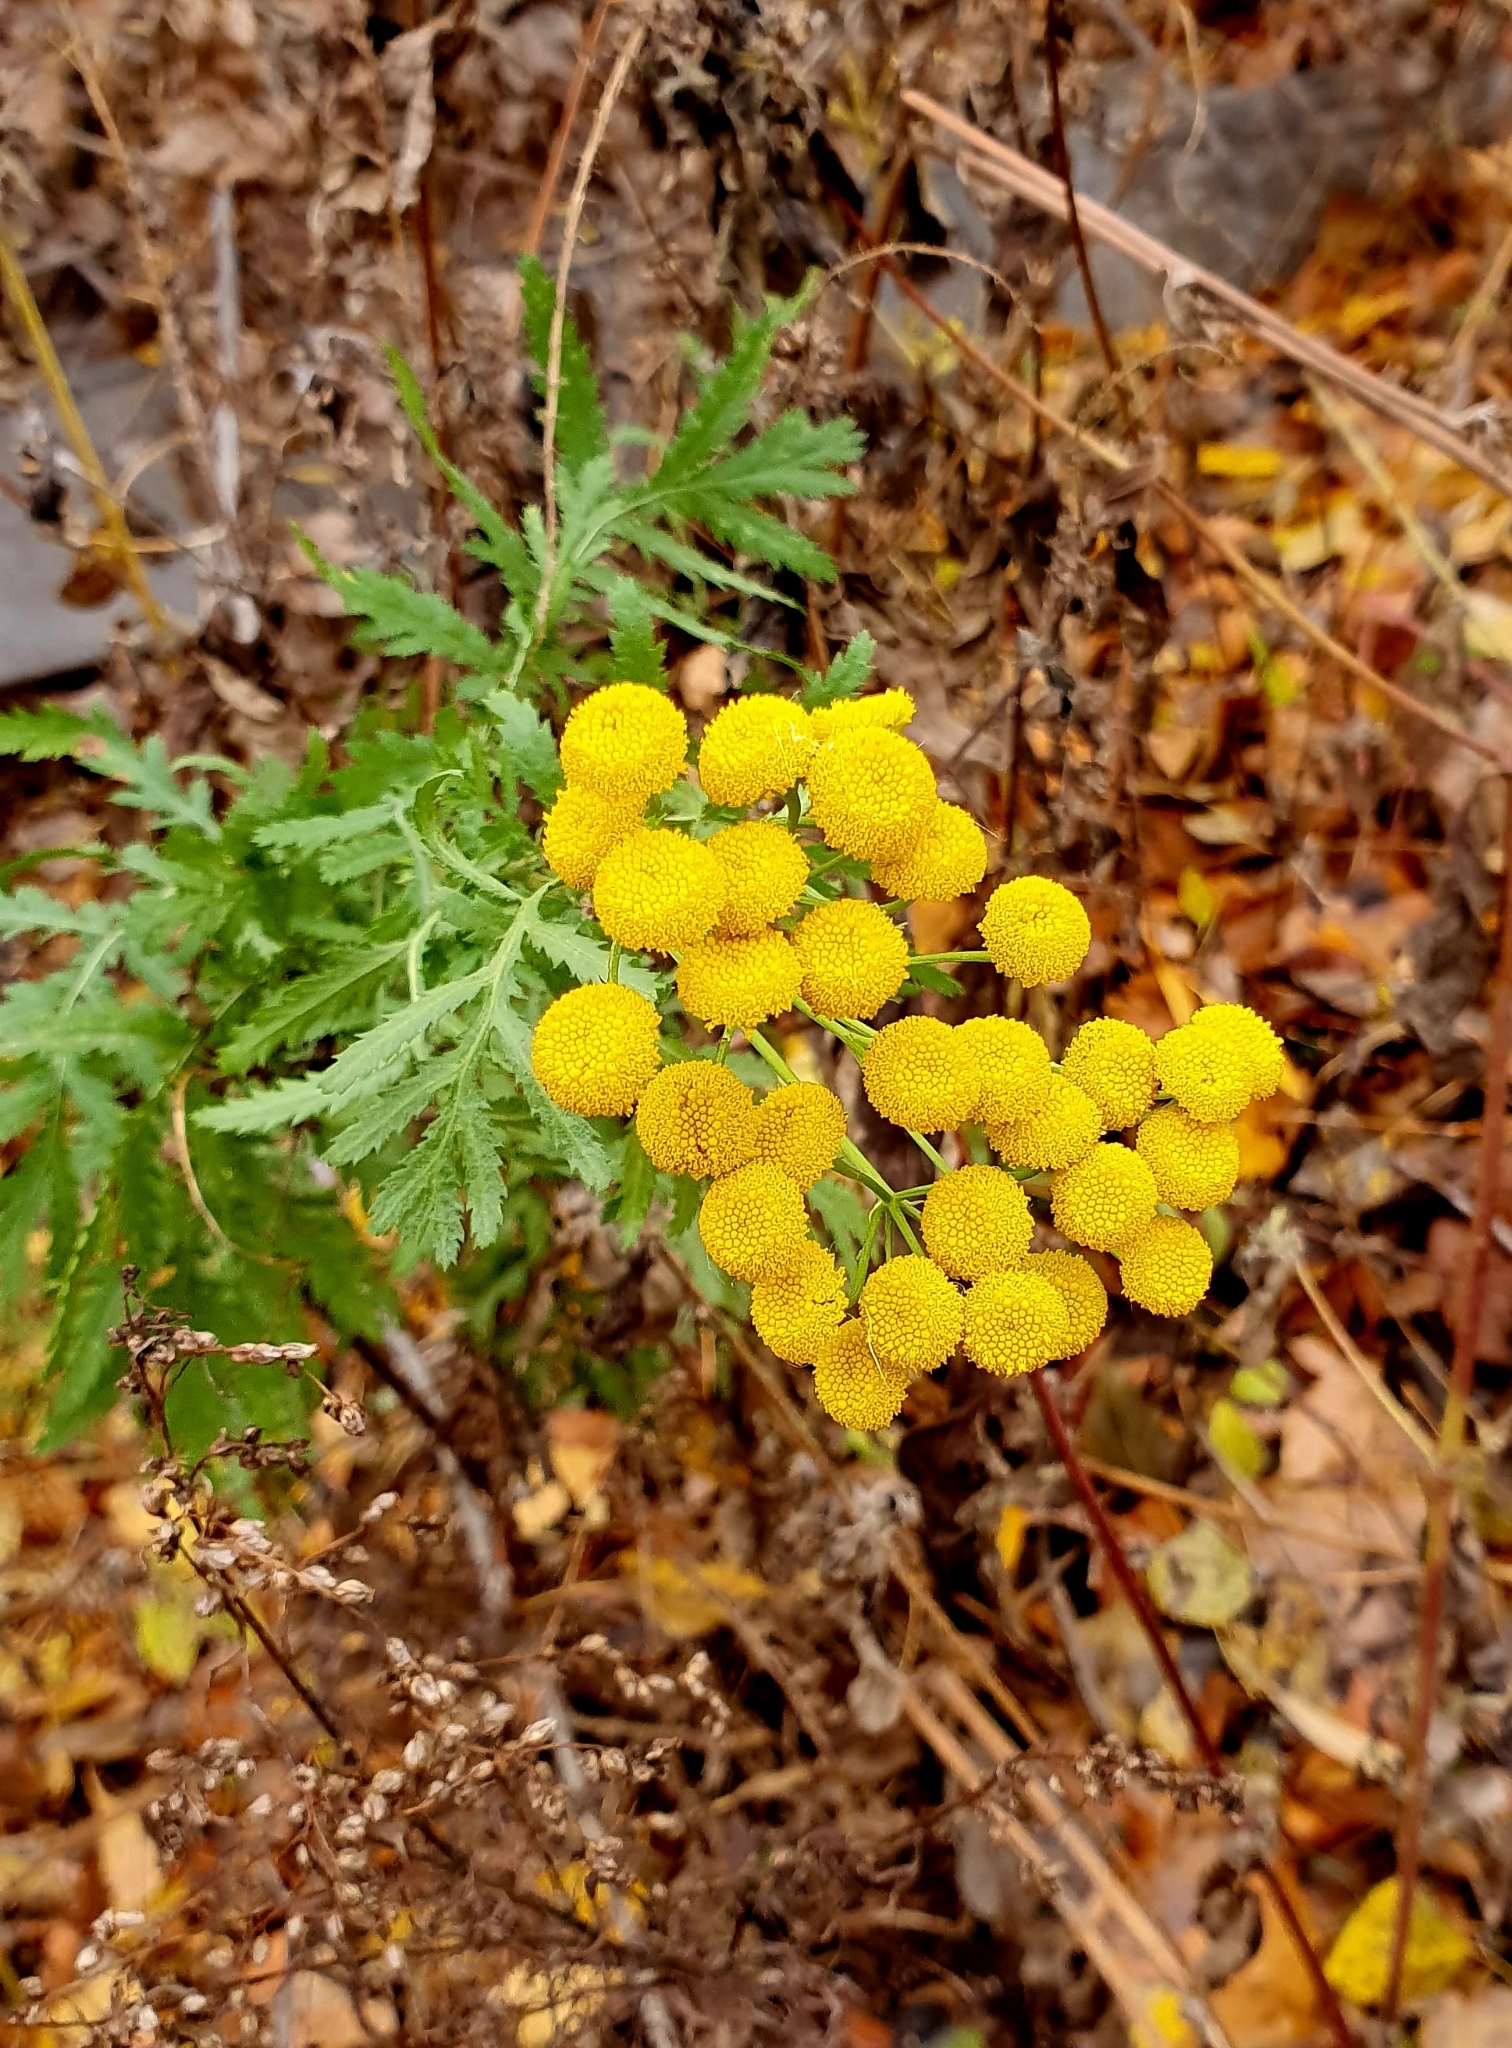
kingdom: Plantae
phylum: Tracheophyta
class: Magnoliopsida
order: Asterales
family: Asteraceae
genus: Tanacetum
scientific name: Tanacetum vulgare
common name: Common tansy
